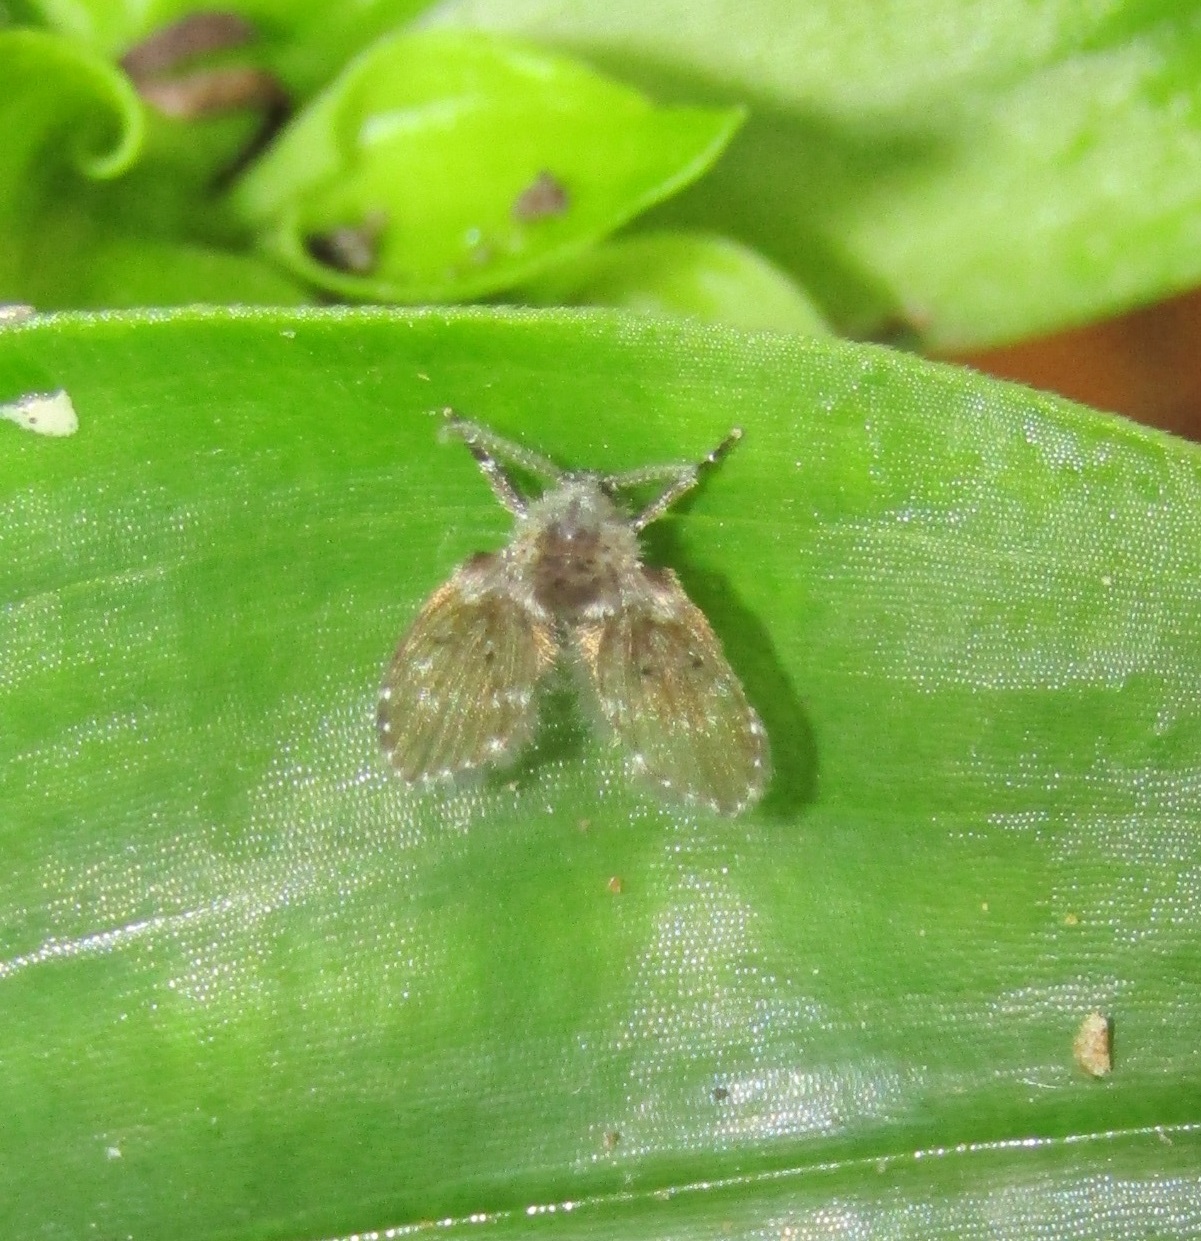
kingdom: Animalia
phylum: Arthropoda
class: Insecta
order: Diptera
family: Psychodidae
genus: Clogmia
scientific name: Clogmia albipunctatus
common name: White-spotted moth fly
